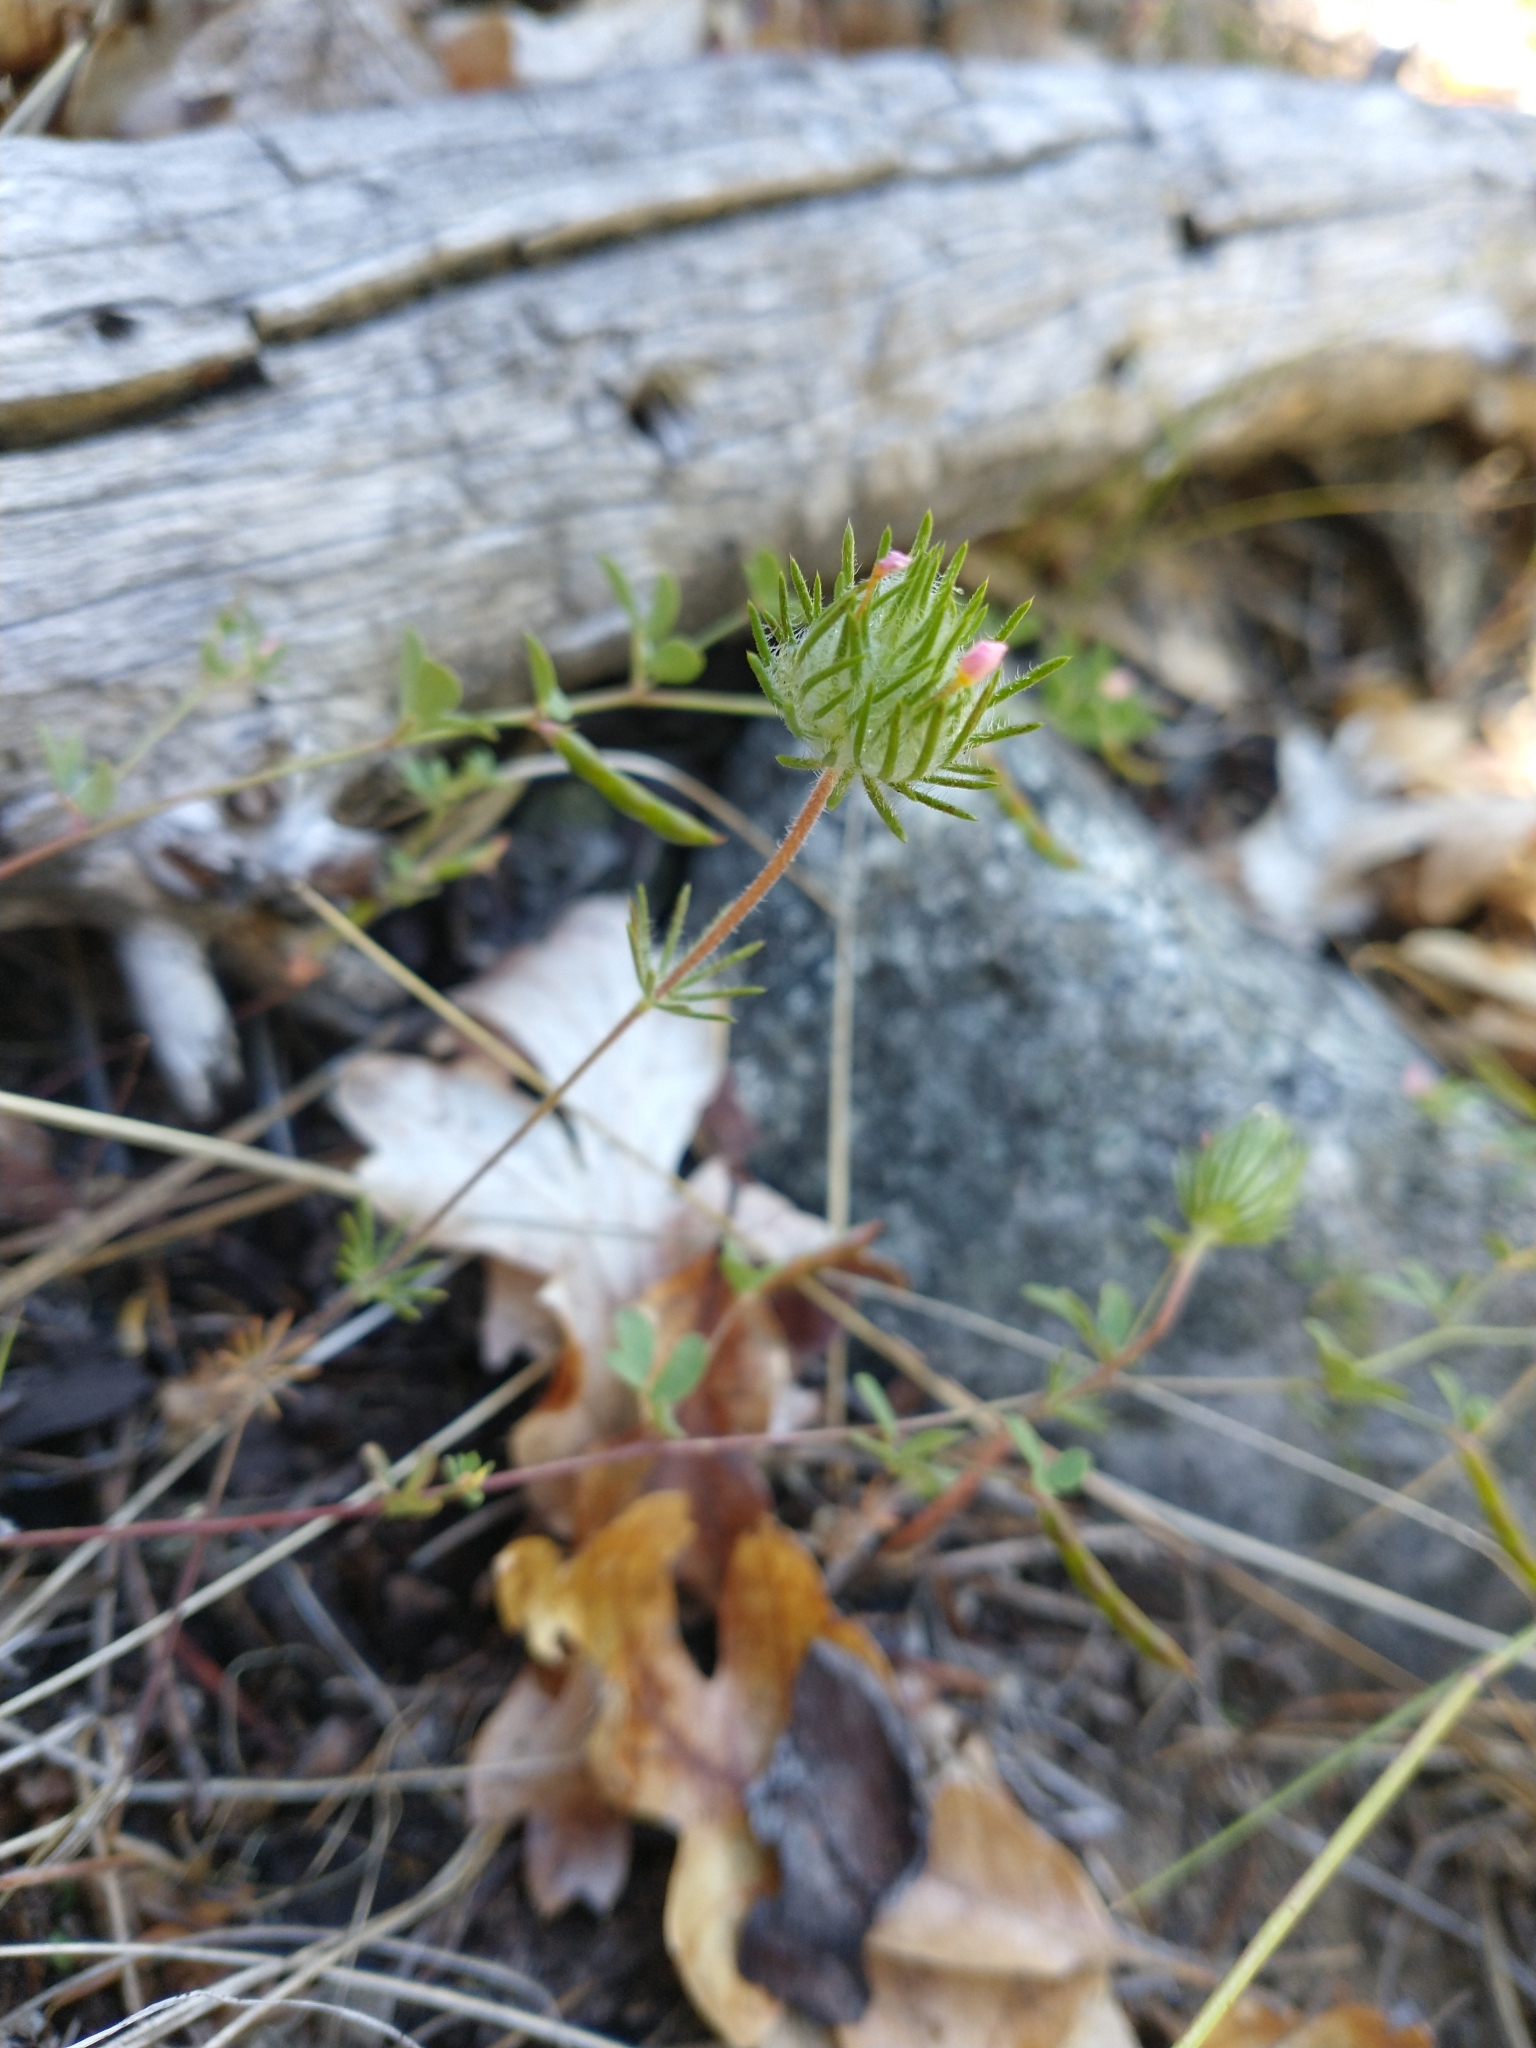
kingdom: Plantae
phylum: Tracheophyta
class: Magnoliopsida
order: Ericales
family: Polemoniaceae
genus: Leptosiphon
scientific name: Leptosiphon ciliatus
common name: Whiskerbrush
